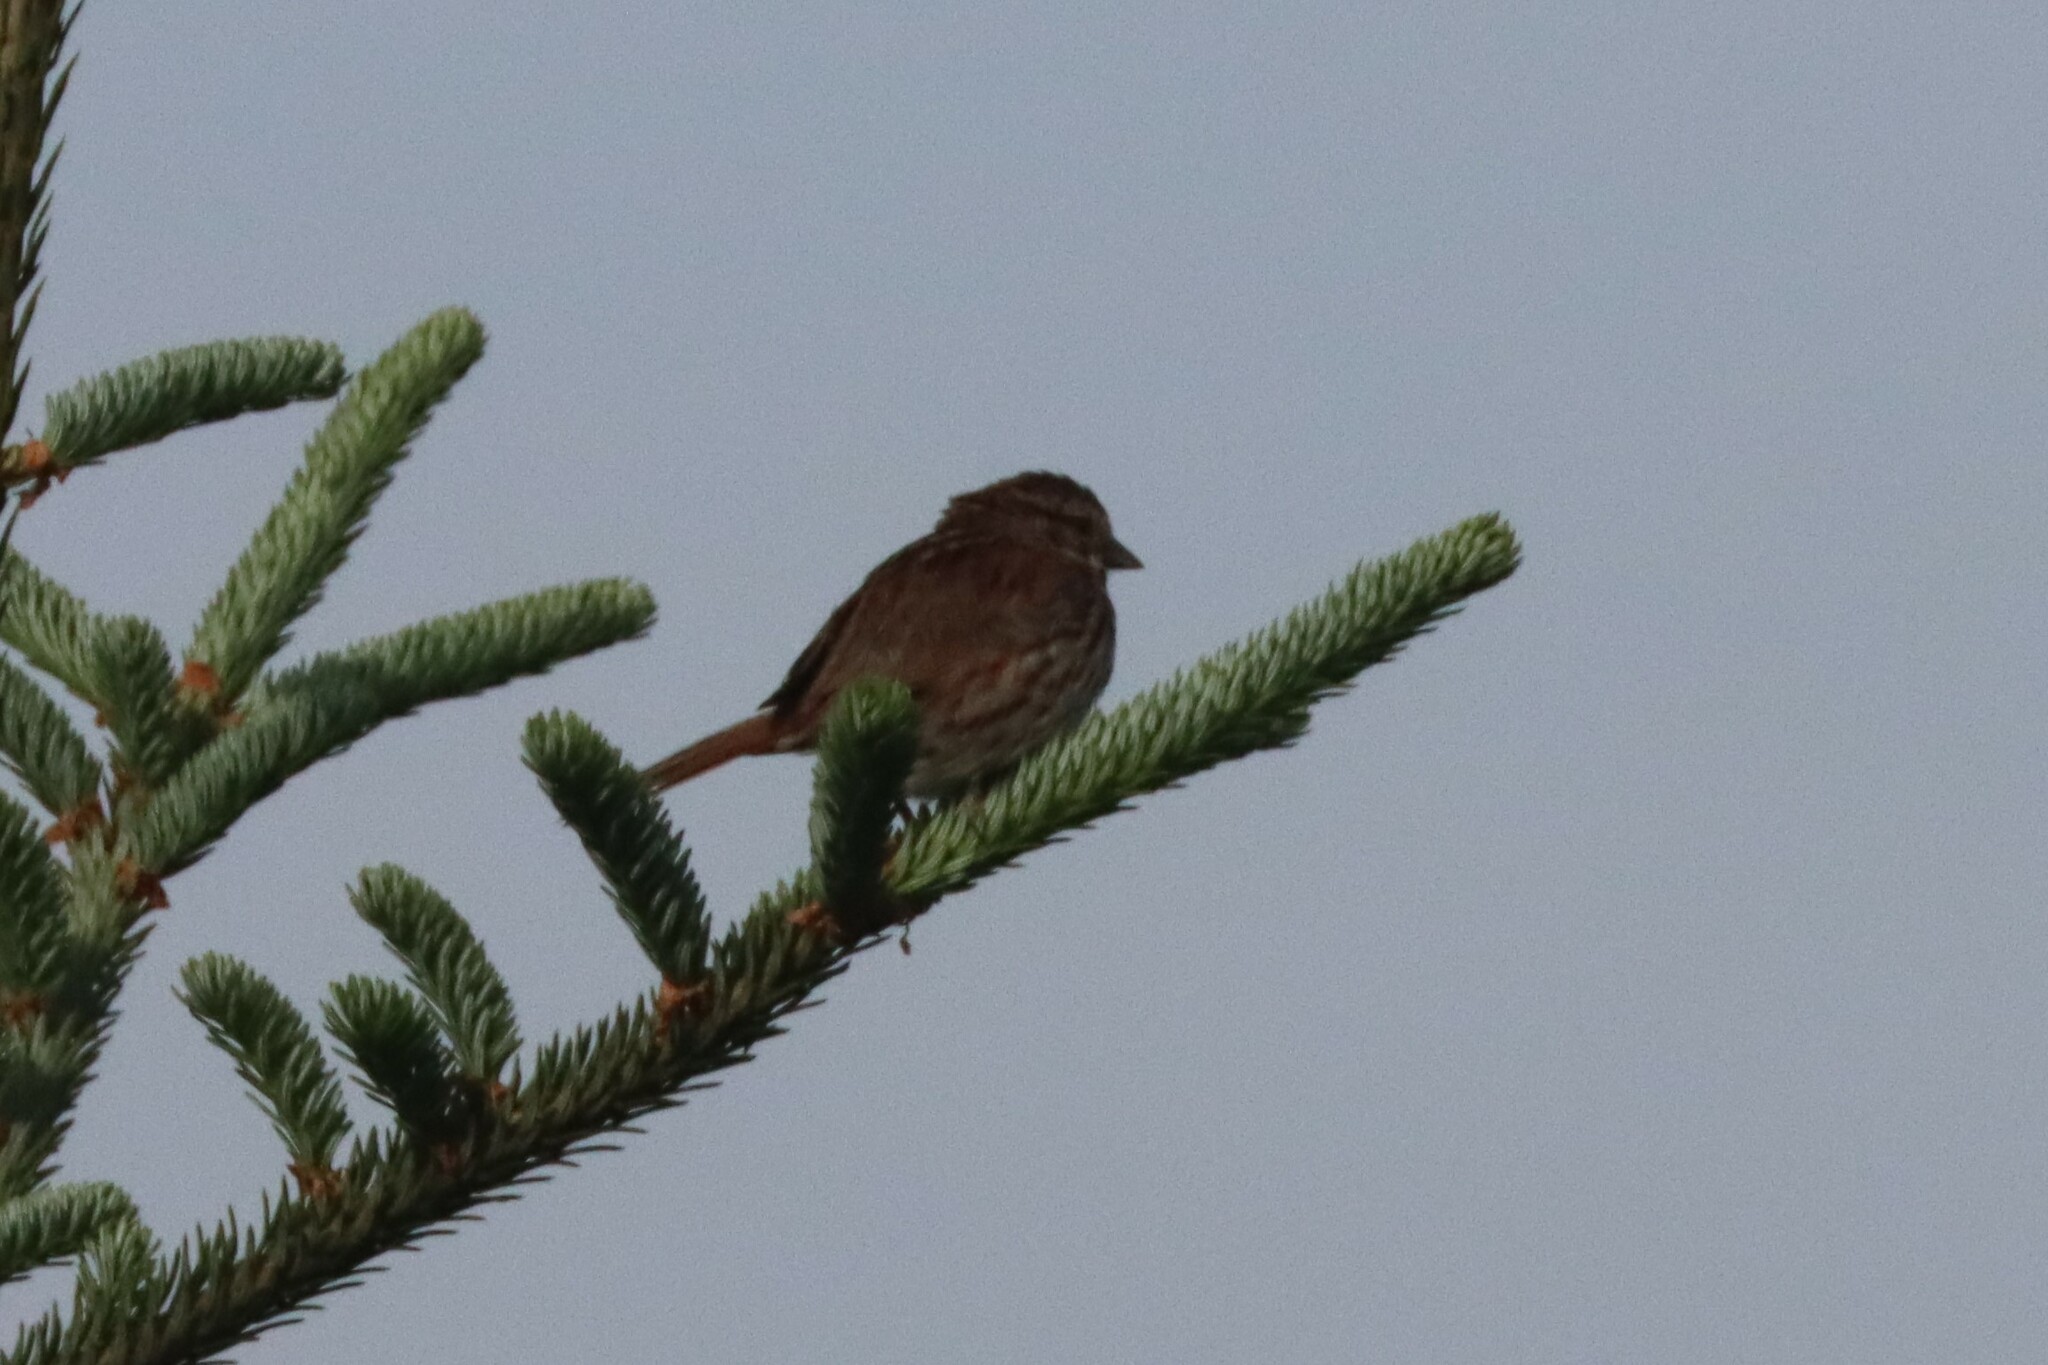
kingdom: Animalia
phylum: Chordata
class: Aves
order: Passeriformes
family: Passerellidae
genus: Melospiza
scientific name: Melospiza melodia
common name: Song sparrow
